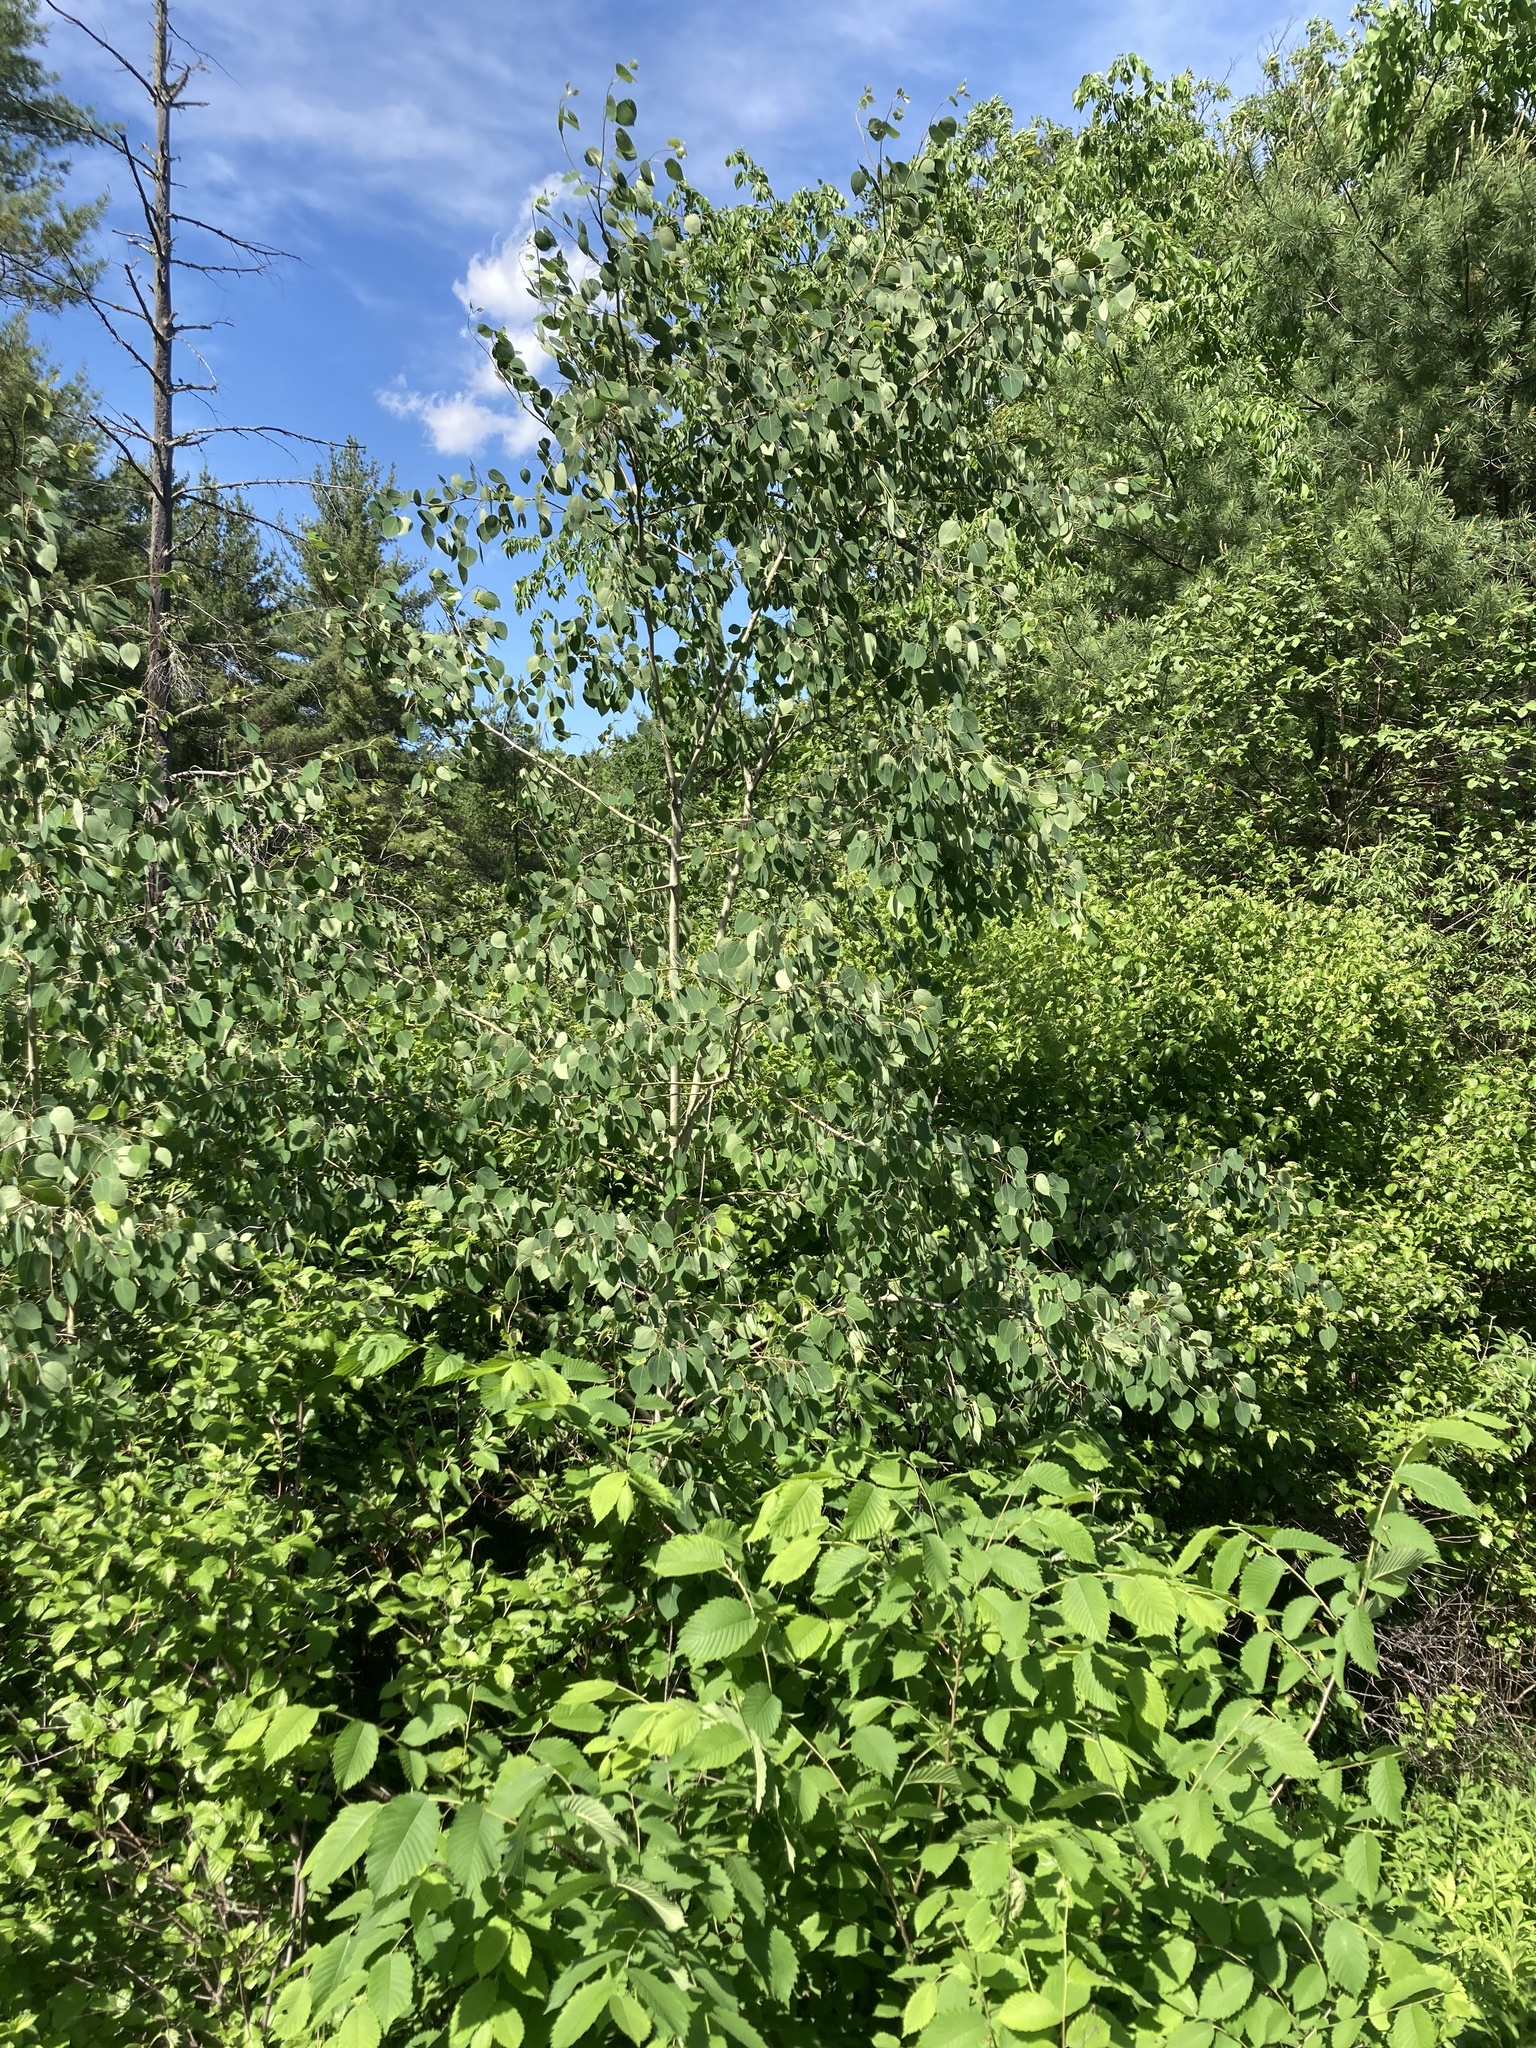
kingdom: Plantae
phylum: Tracheophyta
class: Magnoliopsida
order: Malpighiales
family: Salicaceae
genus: Populus
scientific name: Populus tremuloides
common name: Quaking aspen
